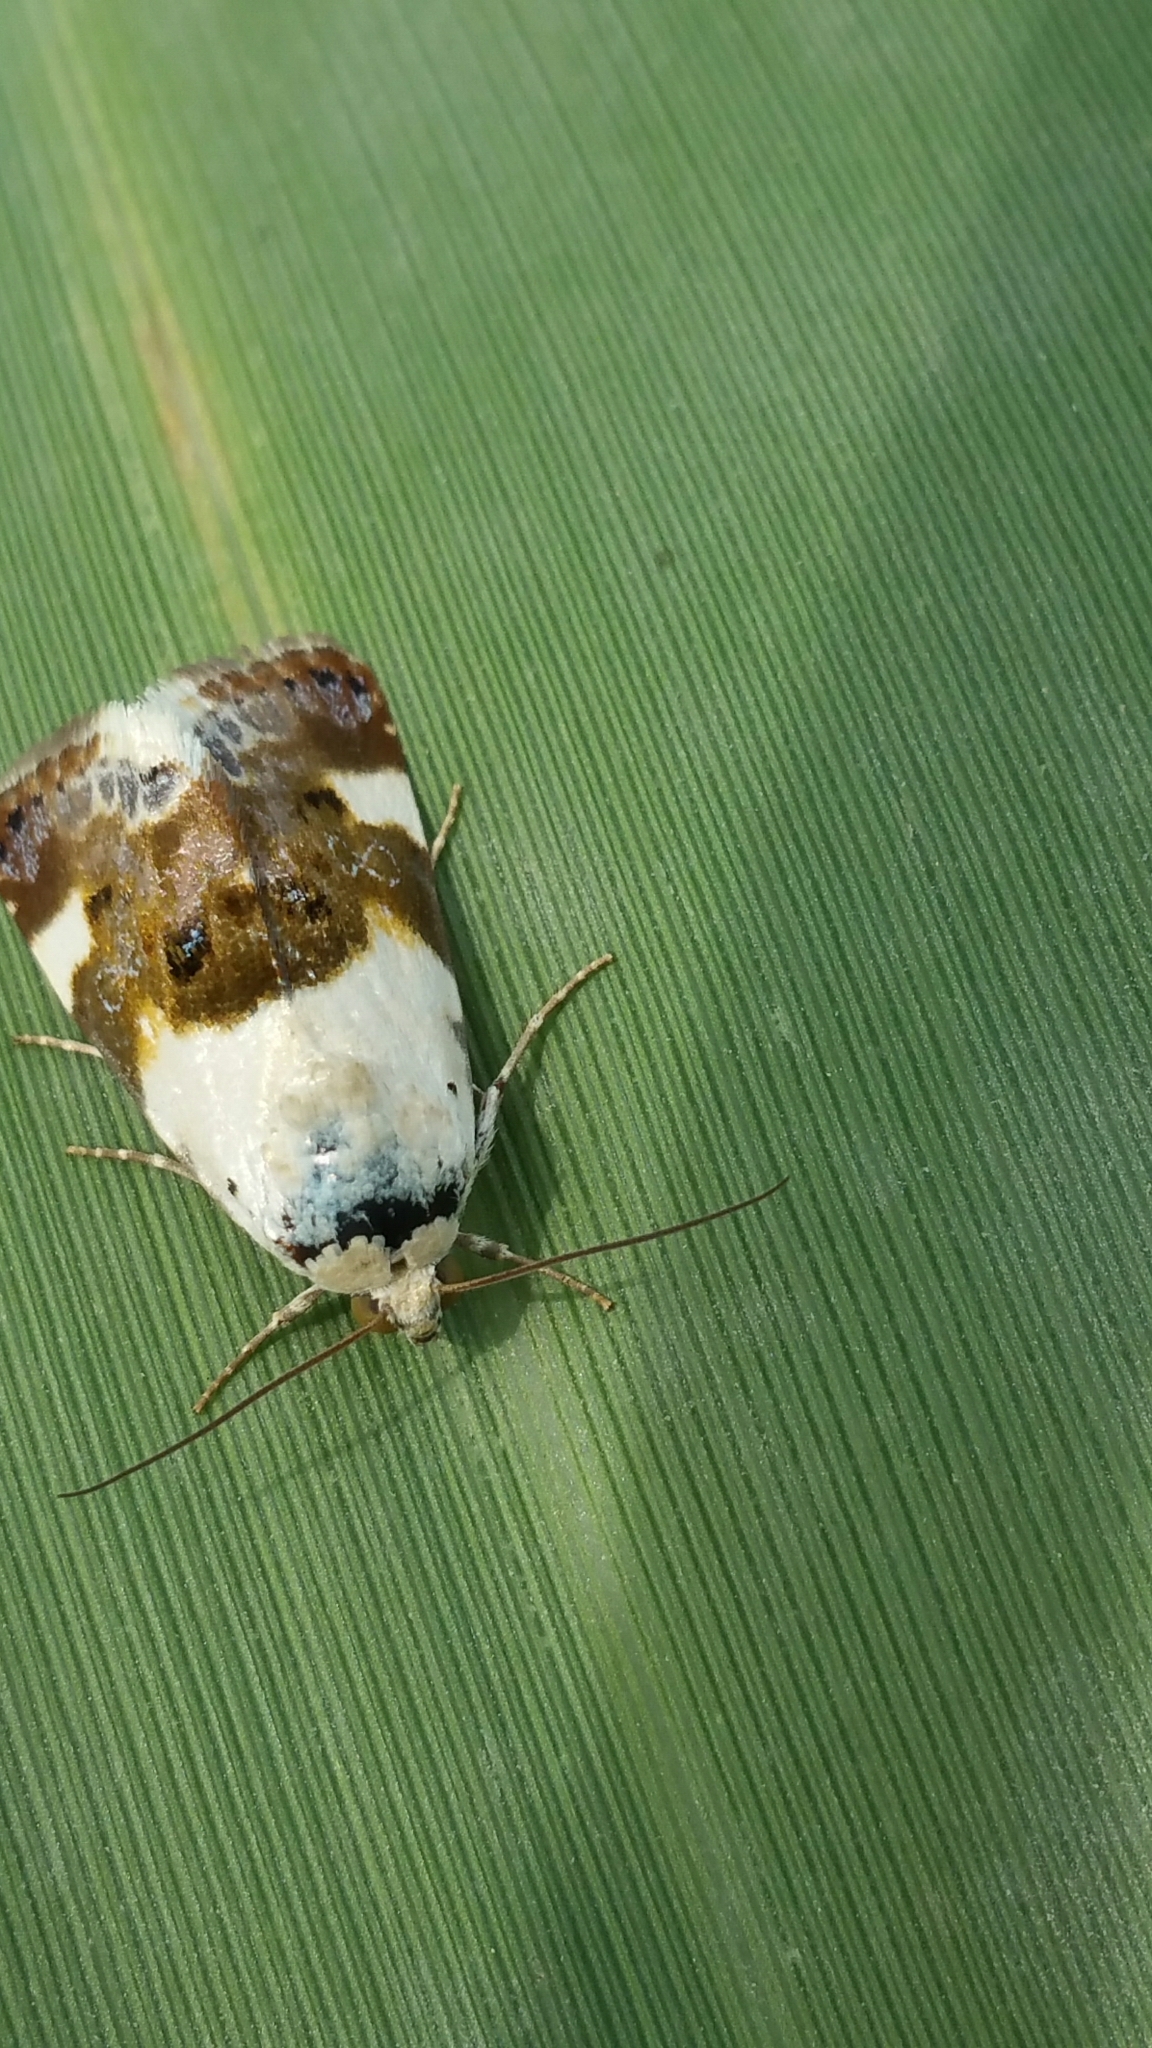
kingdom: Animalia
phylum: Arthropoda
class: Insecta
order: Lepidoptera
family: Noctuidae
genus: Acontia
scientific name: Acontia lucida
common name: Pale shoulder
